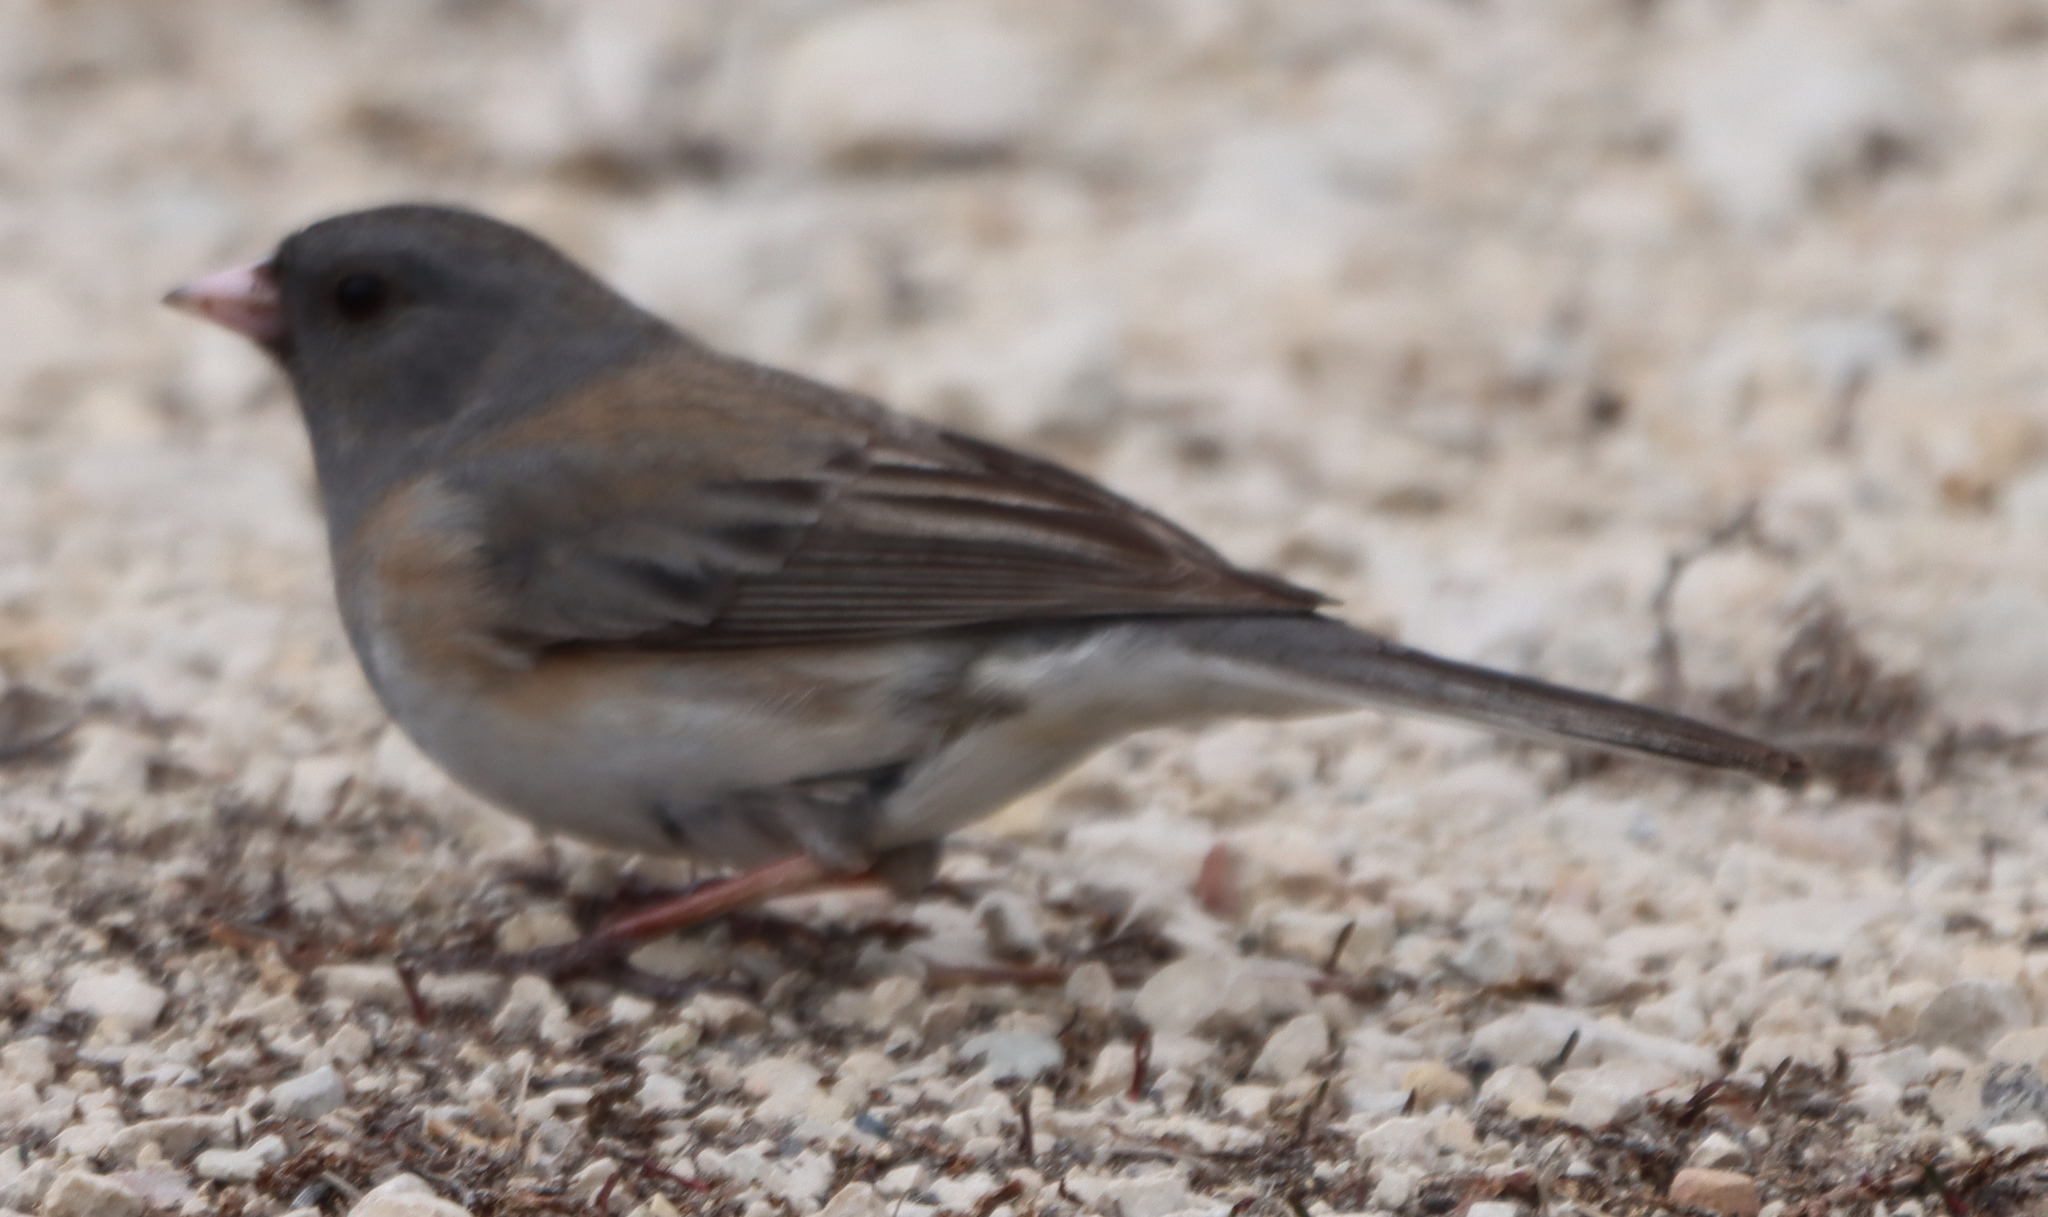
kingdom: Animalia
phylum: Chordata
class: Aves
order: Passeriformes
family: Passerellidae
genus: Junco
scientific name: Junco hyemalis
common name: Dark-eyed junco
